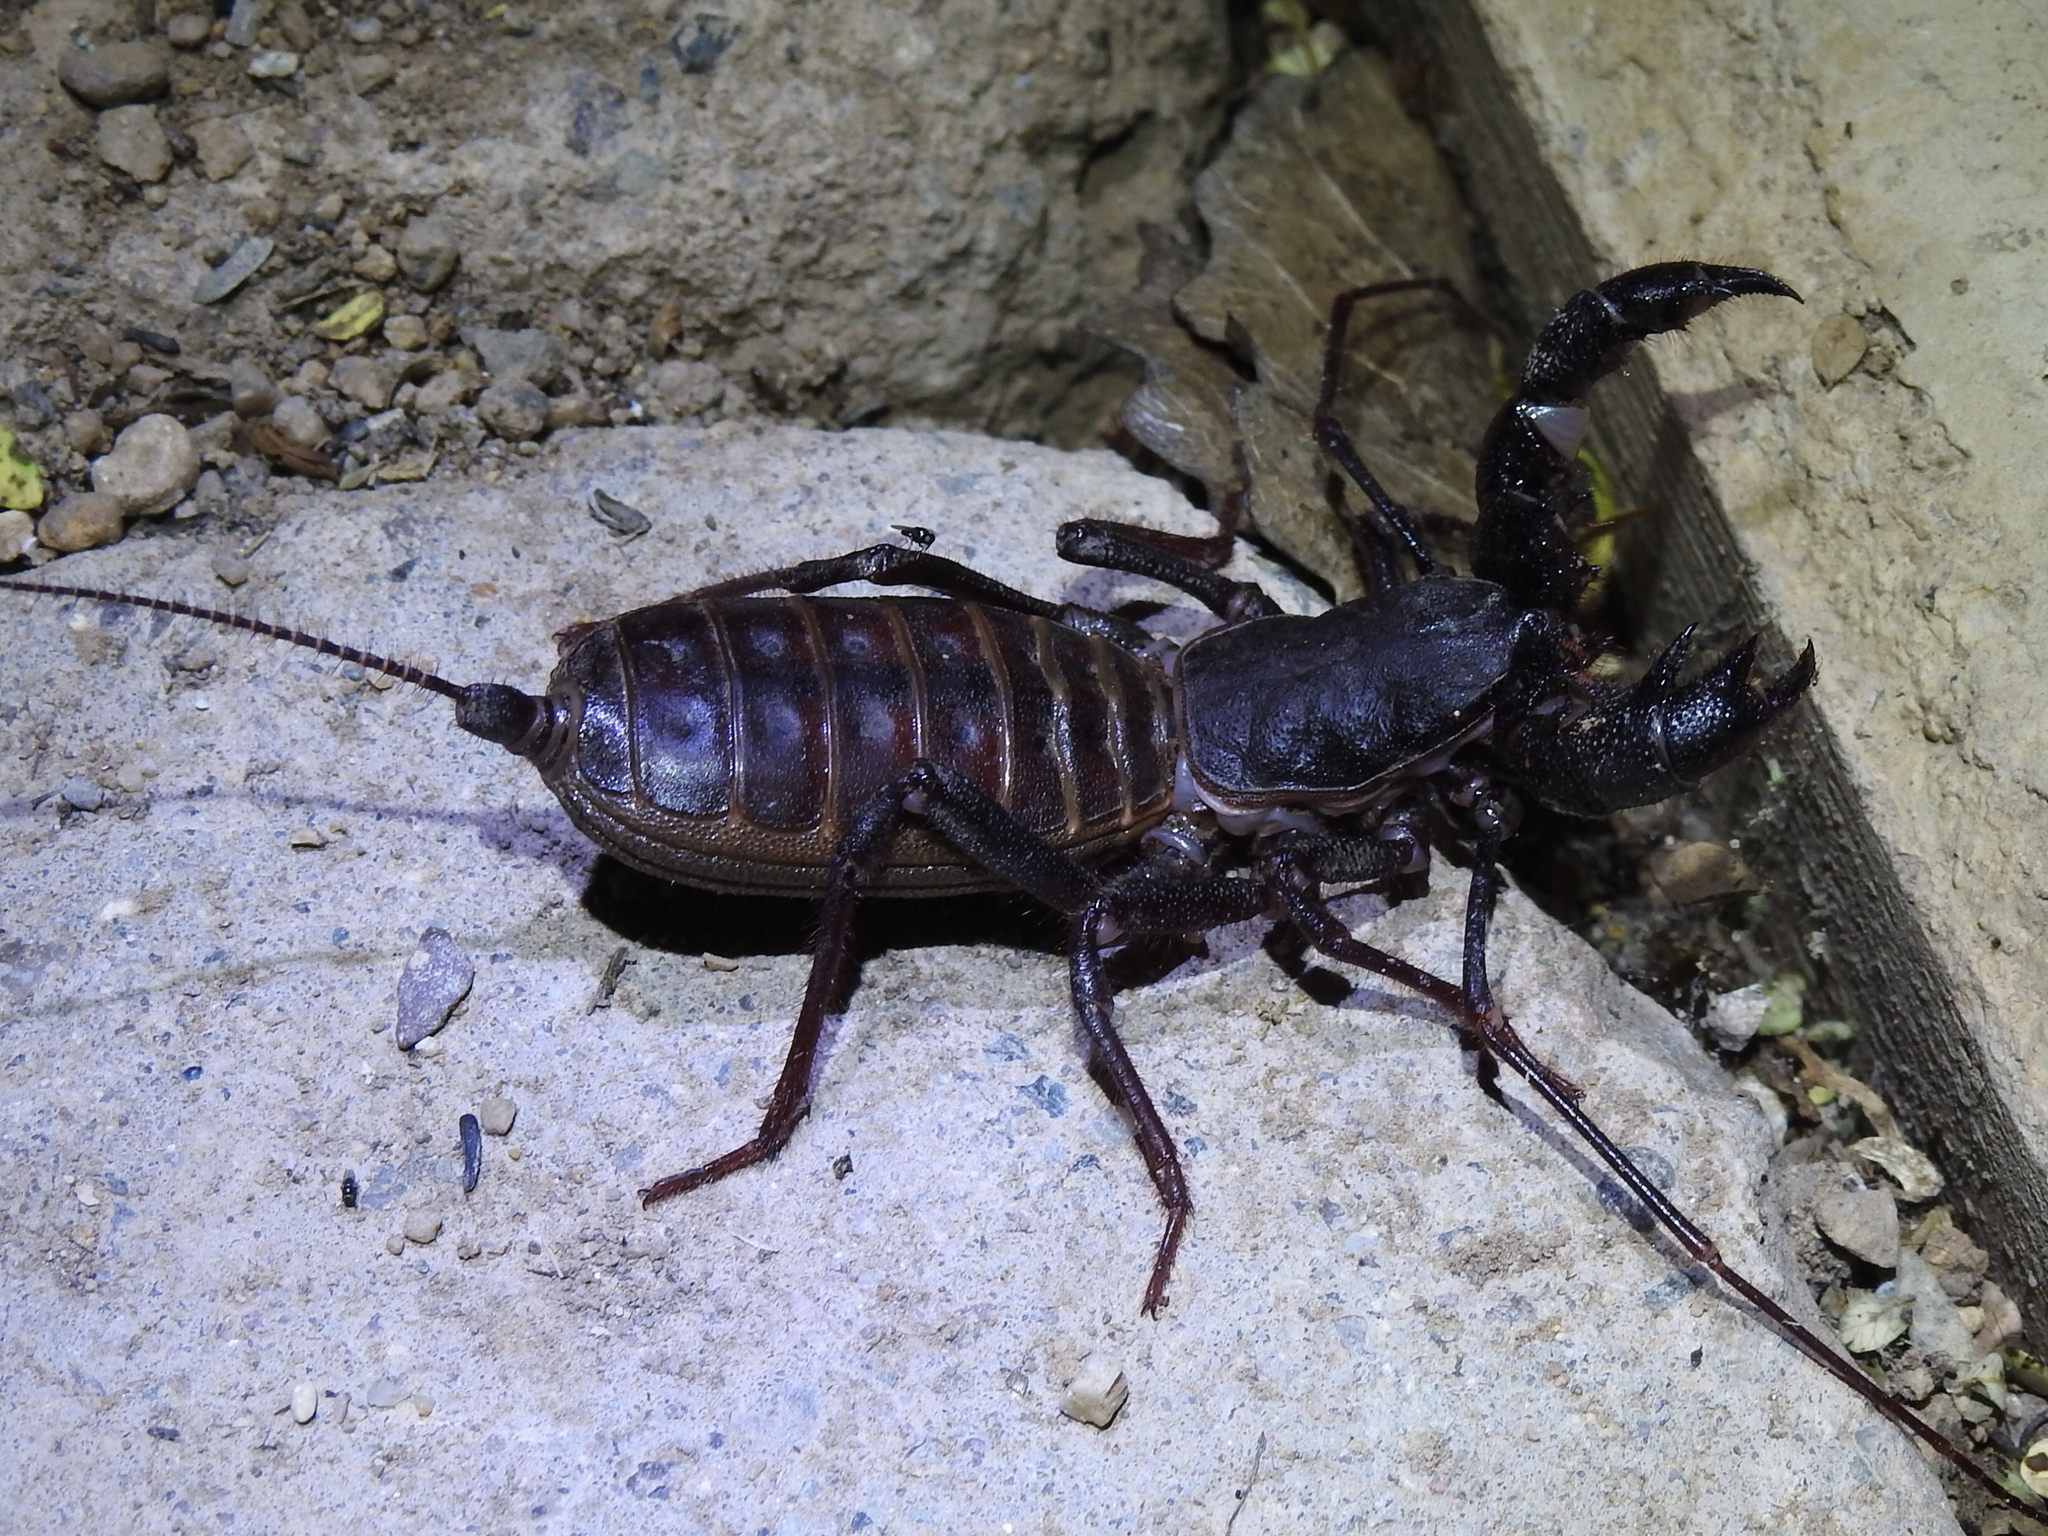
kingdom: Animalia
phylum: Arthropoda
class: Arachnida
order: Uropygi
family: Thelyphonidae
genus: Mastigoproctus
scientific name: Mastigoproctus tohono
